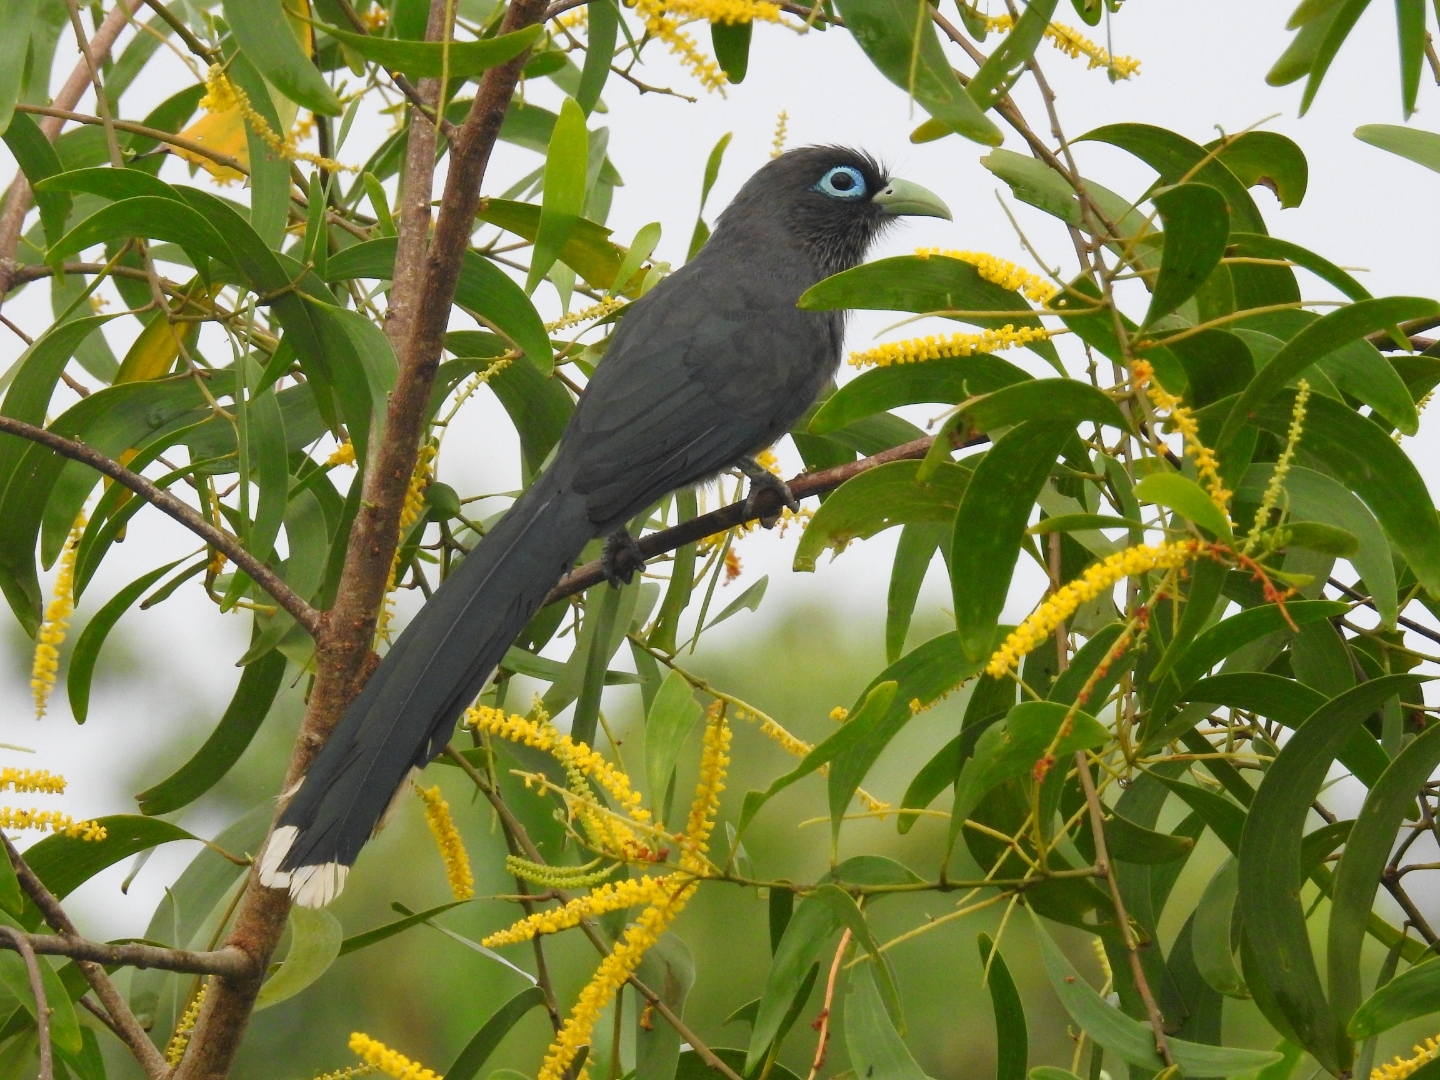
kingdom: Animalia
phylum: Chordata
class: Aves
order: Cuculiformes
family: Cuculidae
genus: Rhopodytes
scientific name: Rhopodytes viridirostris
